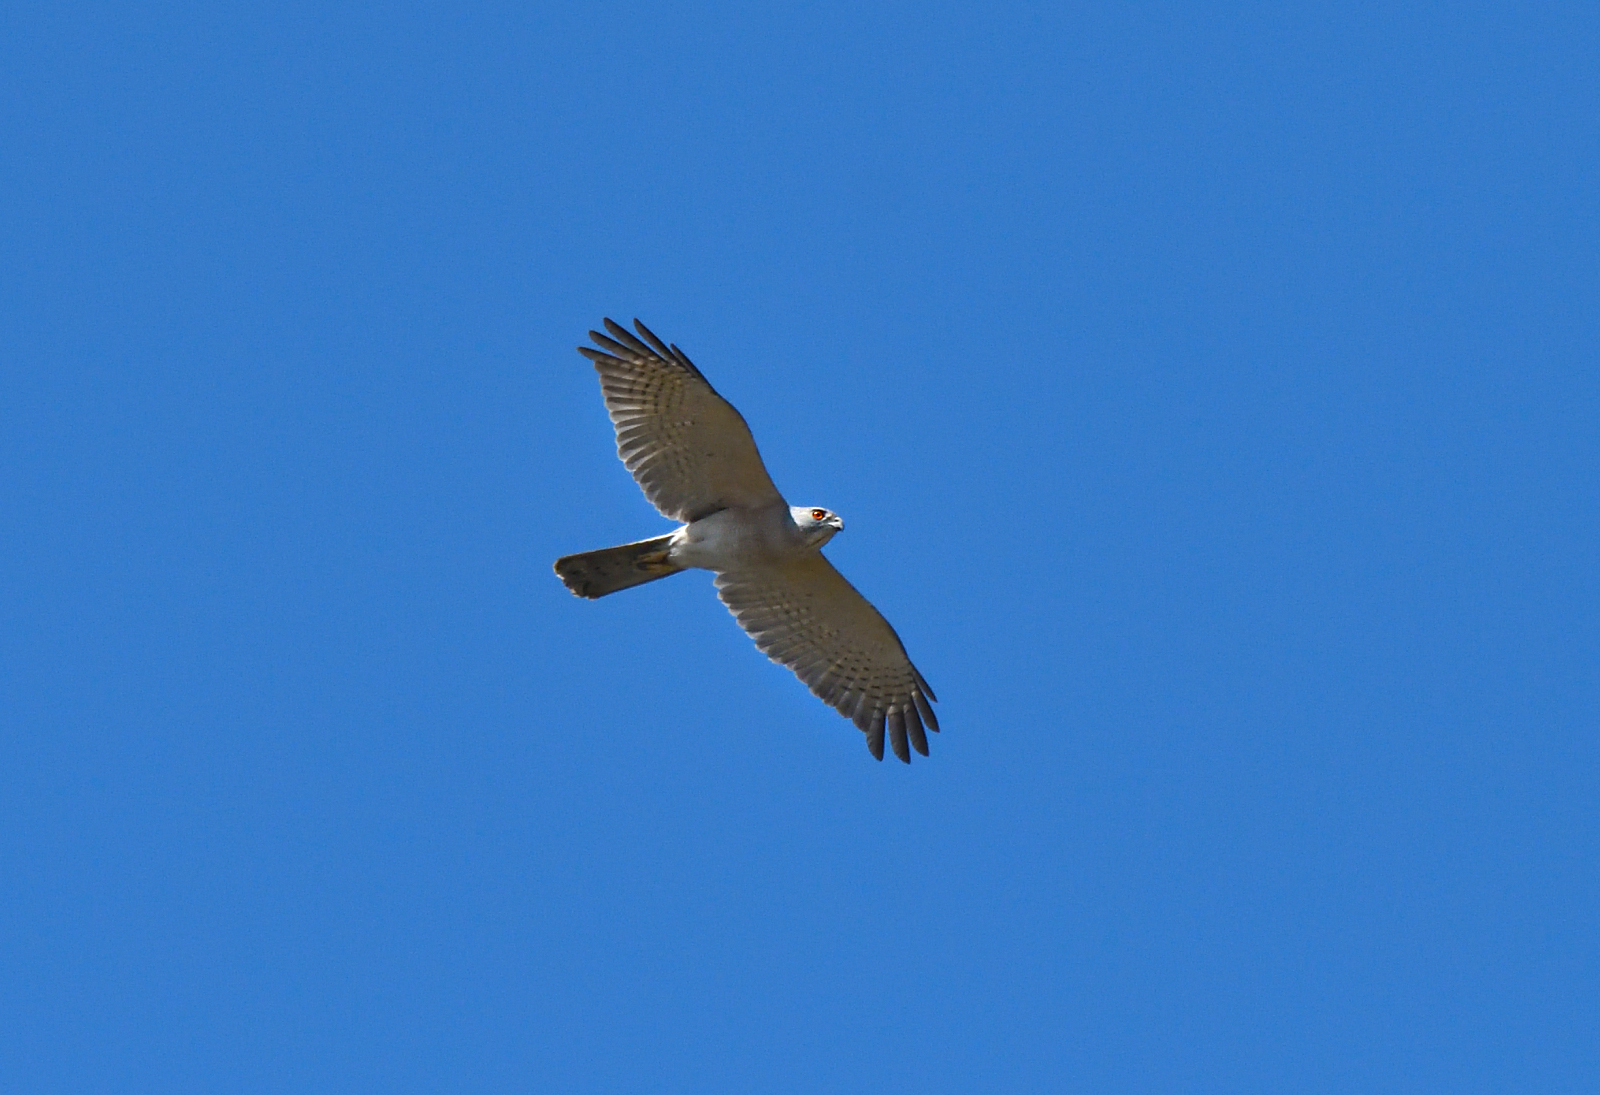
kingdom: Animalia
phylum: Chordata
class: Aves
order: Accipitriformes
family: Accipitridae
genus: Accipiter
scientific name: Accipiter badius
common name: Shikra
